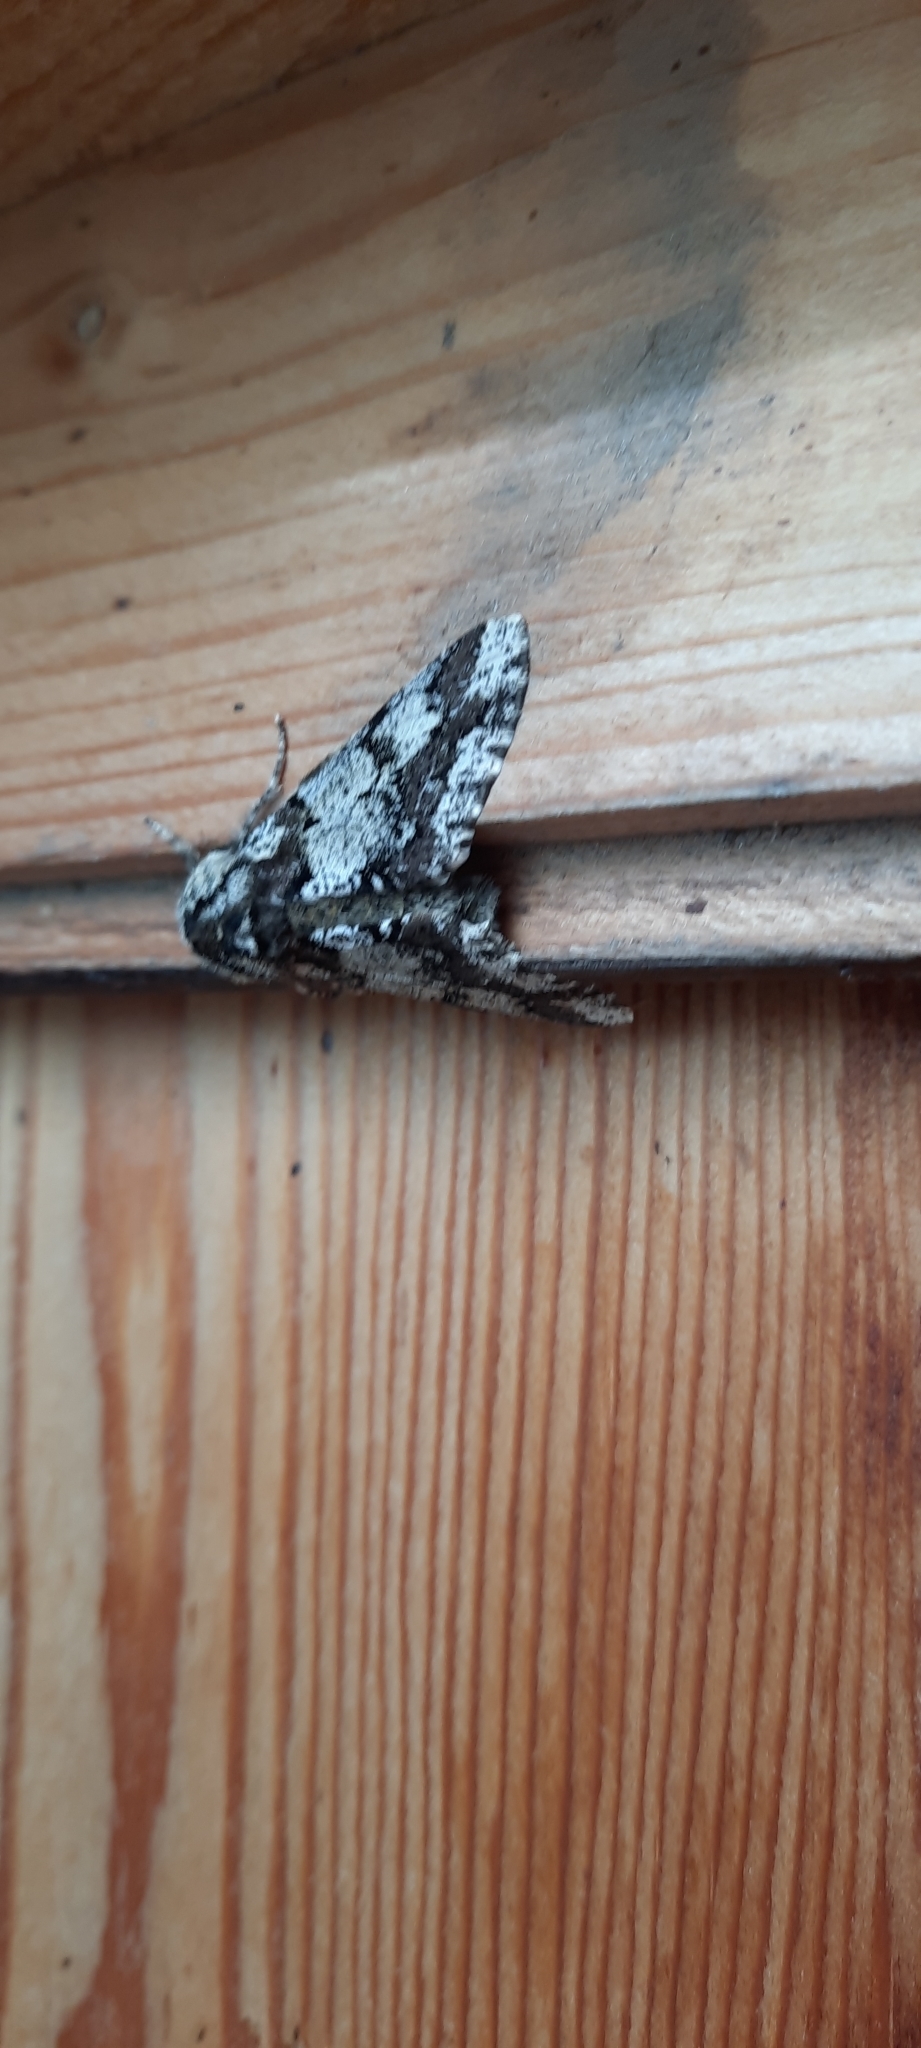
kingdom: Animalia
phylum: Arthropoda
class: Insecta
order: Lepidoptera
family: Geometridae
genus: Biston
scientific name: Biston strataria
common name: Oak beauty
